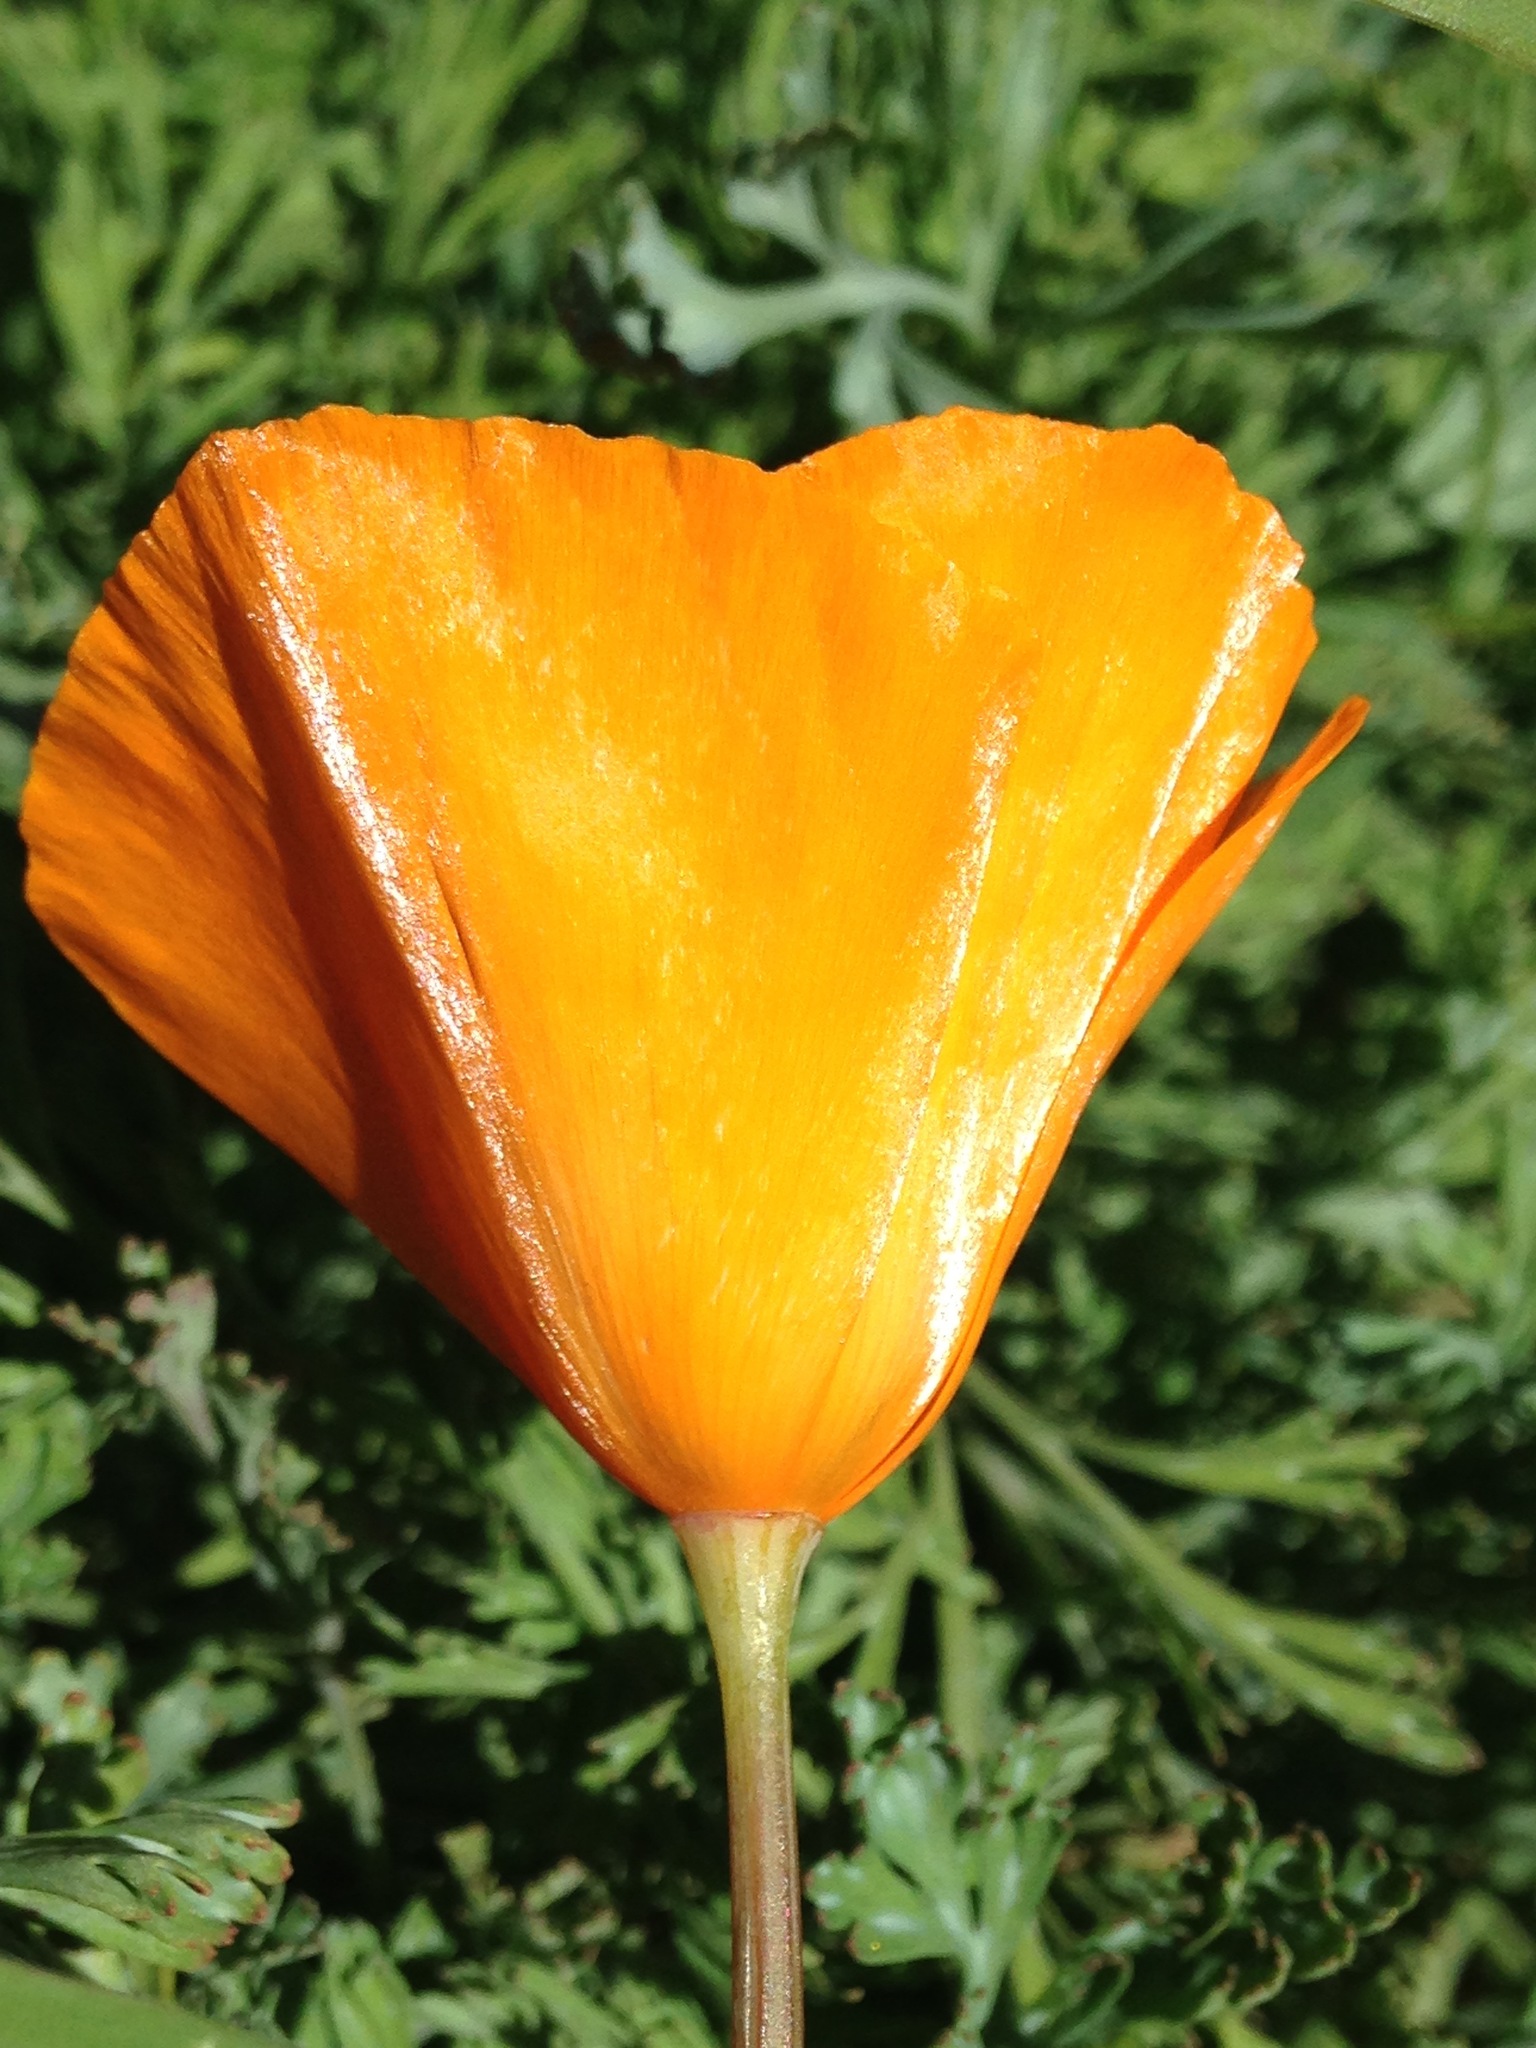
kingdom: Plantae
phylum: Tracheophyta
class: Magnoliopsida
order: Ranunculales
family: Papaveraceae
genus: Eschscholzia
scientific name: Eschscholzia caespitosa
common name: Tufted california-poppy
